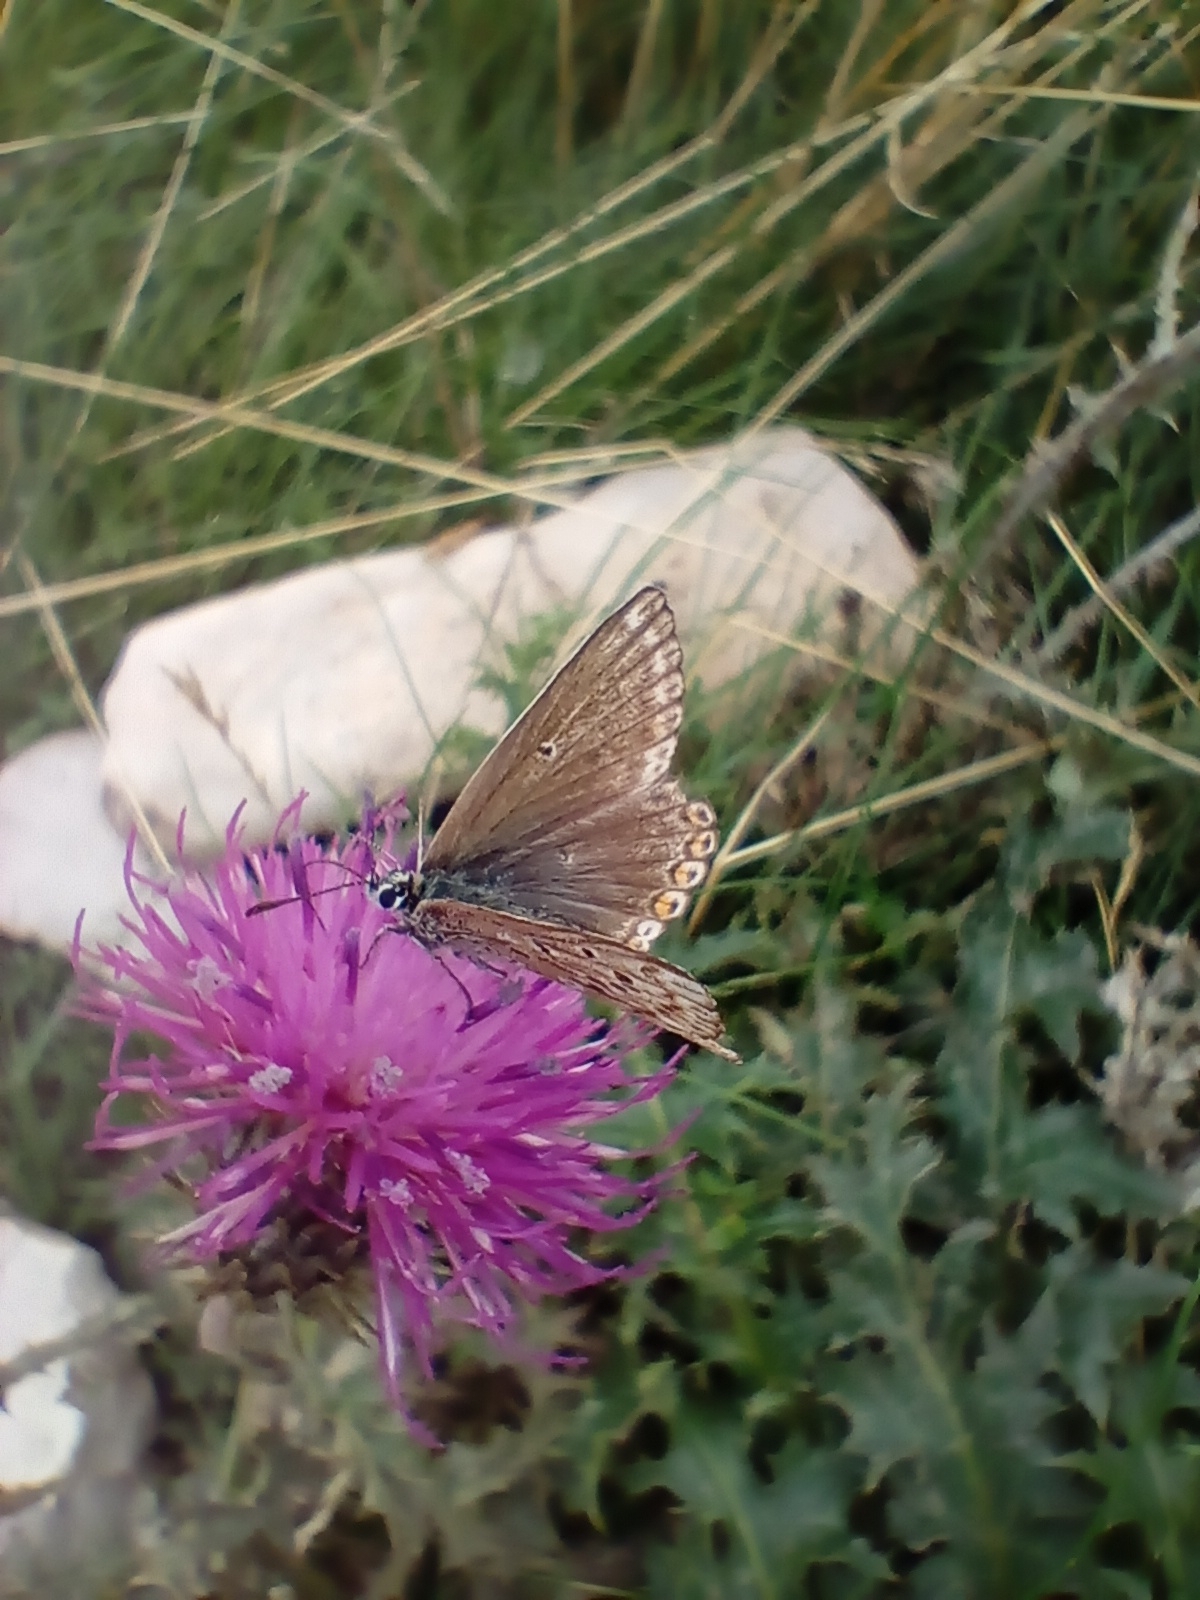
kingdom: Animalia
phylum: Arthropoda
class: Insecta
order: Lepidoptera
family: Lycaenidae
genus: Lysandra
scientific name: Lysandra coridon
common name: Chalkhill blue
